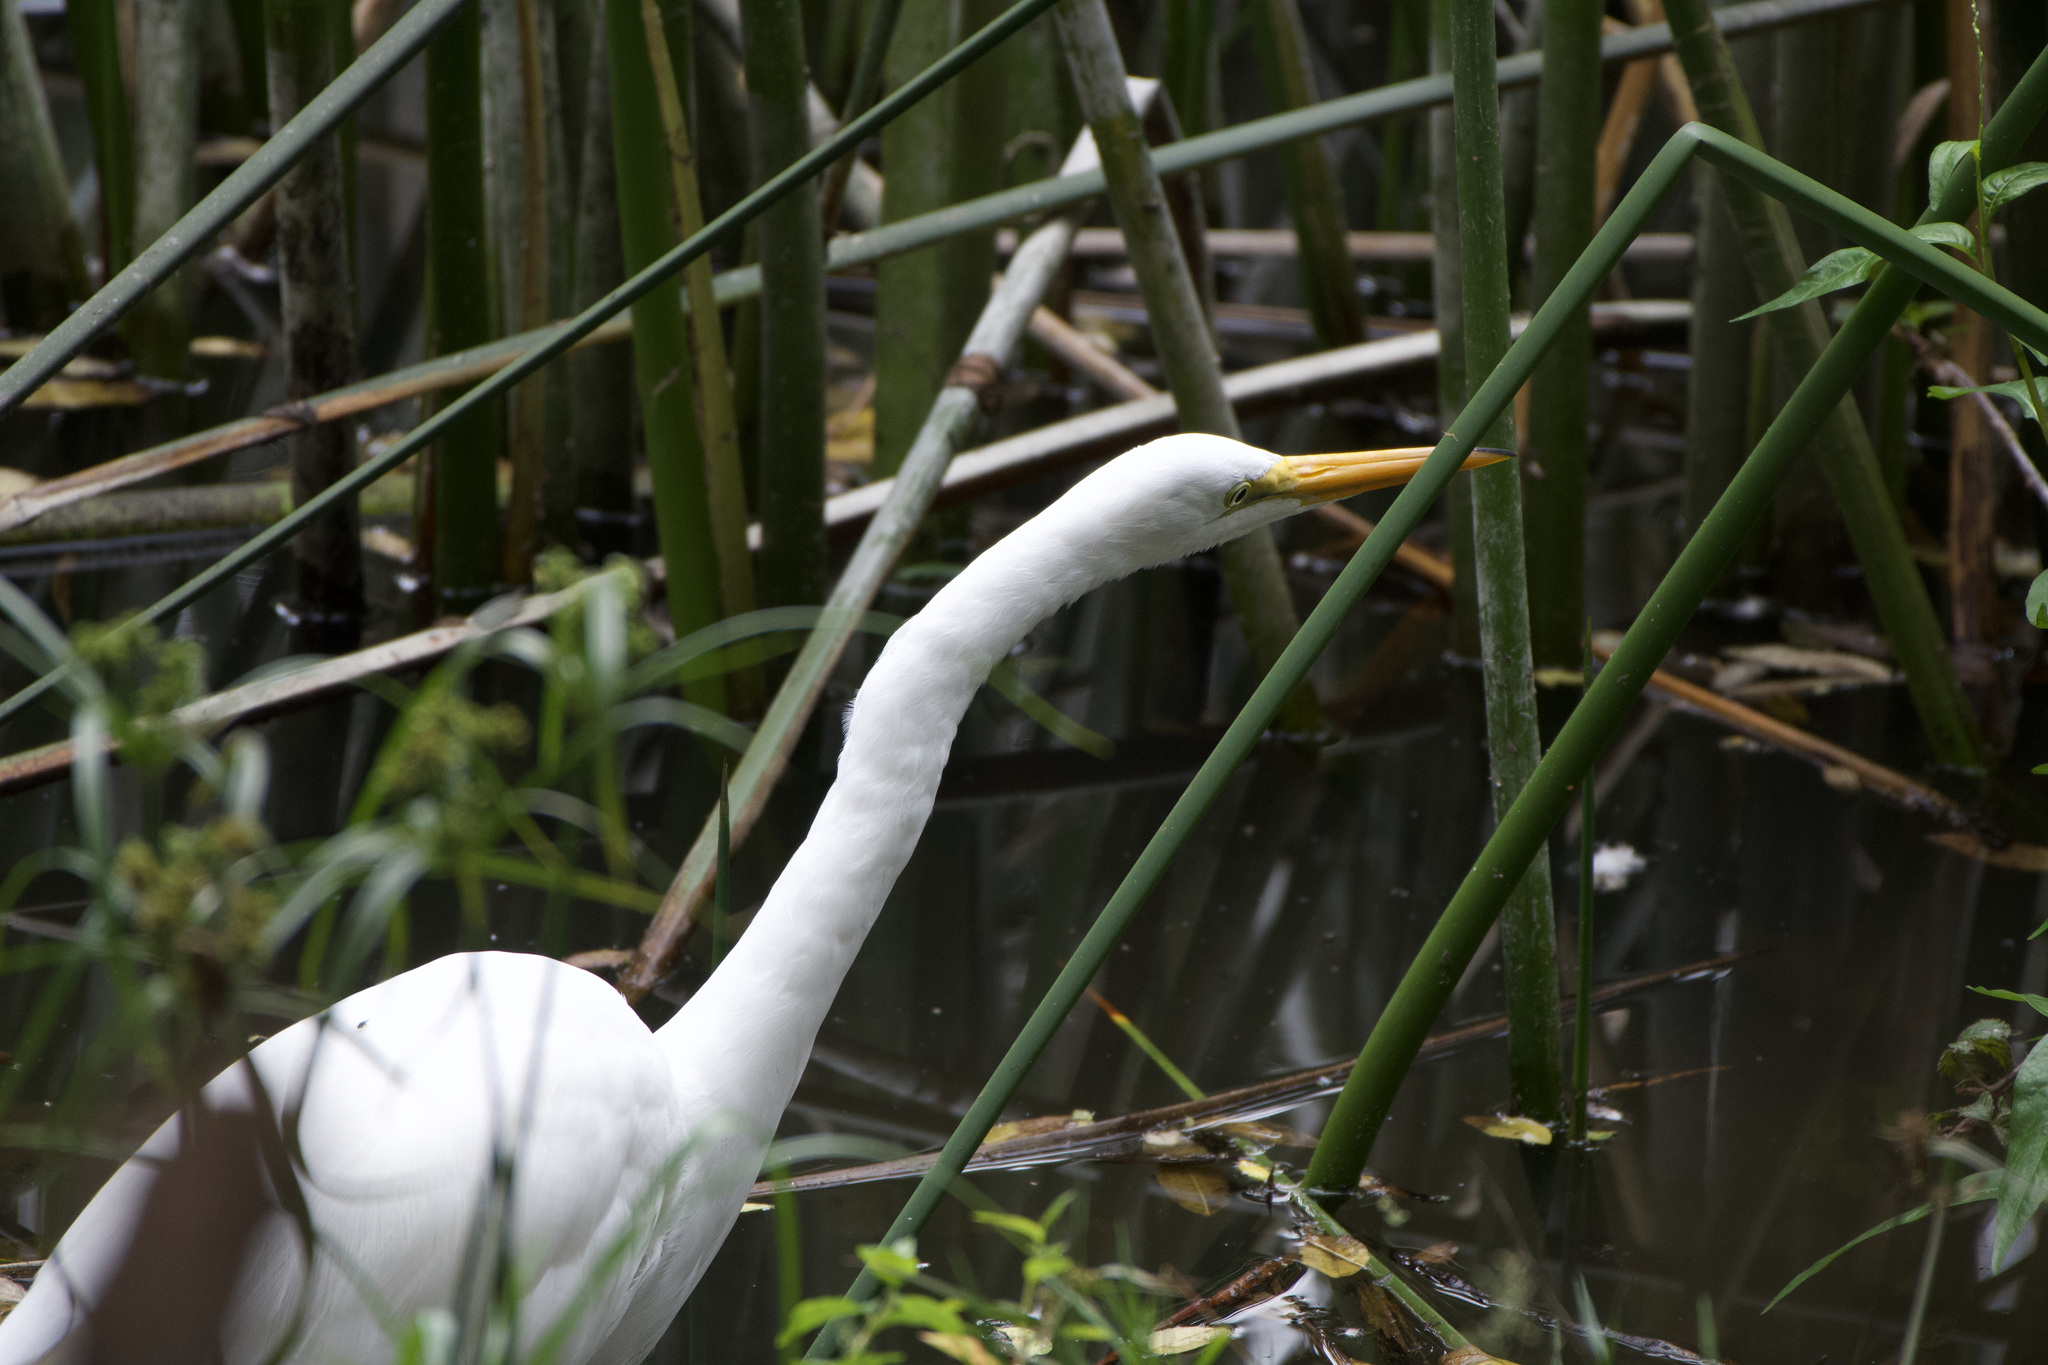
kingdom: Animalia
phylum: Chordata
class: Aves
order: Pelecaniformes
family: Ardeidae
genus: Ardea
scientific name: Ardea alba
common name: Great egret
